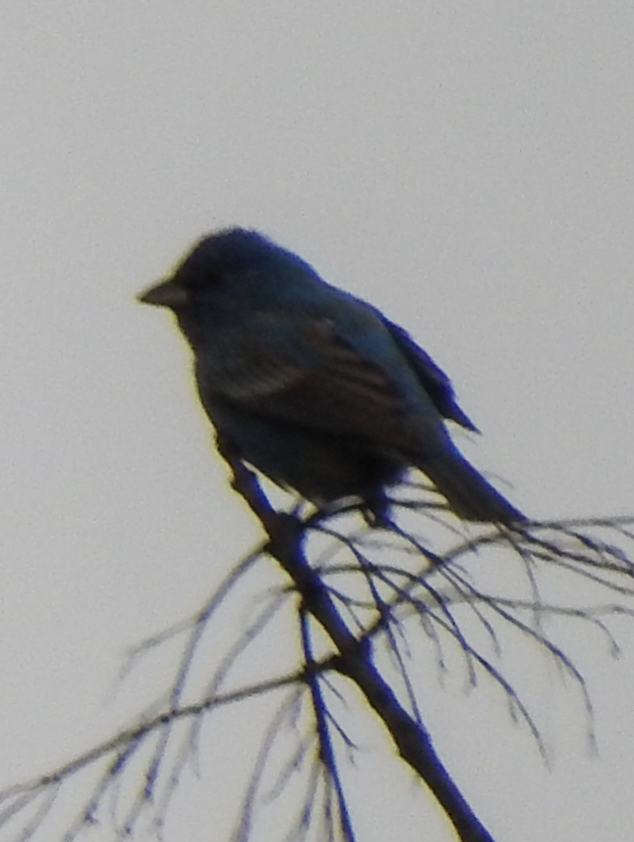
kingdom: Animalia
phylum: Chordata
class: Aves
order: Passeriformes
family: Cardinalidae
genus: Passerina
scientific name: Passerina cyanea
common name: Indigo bunting
